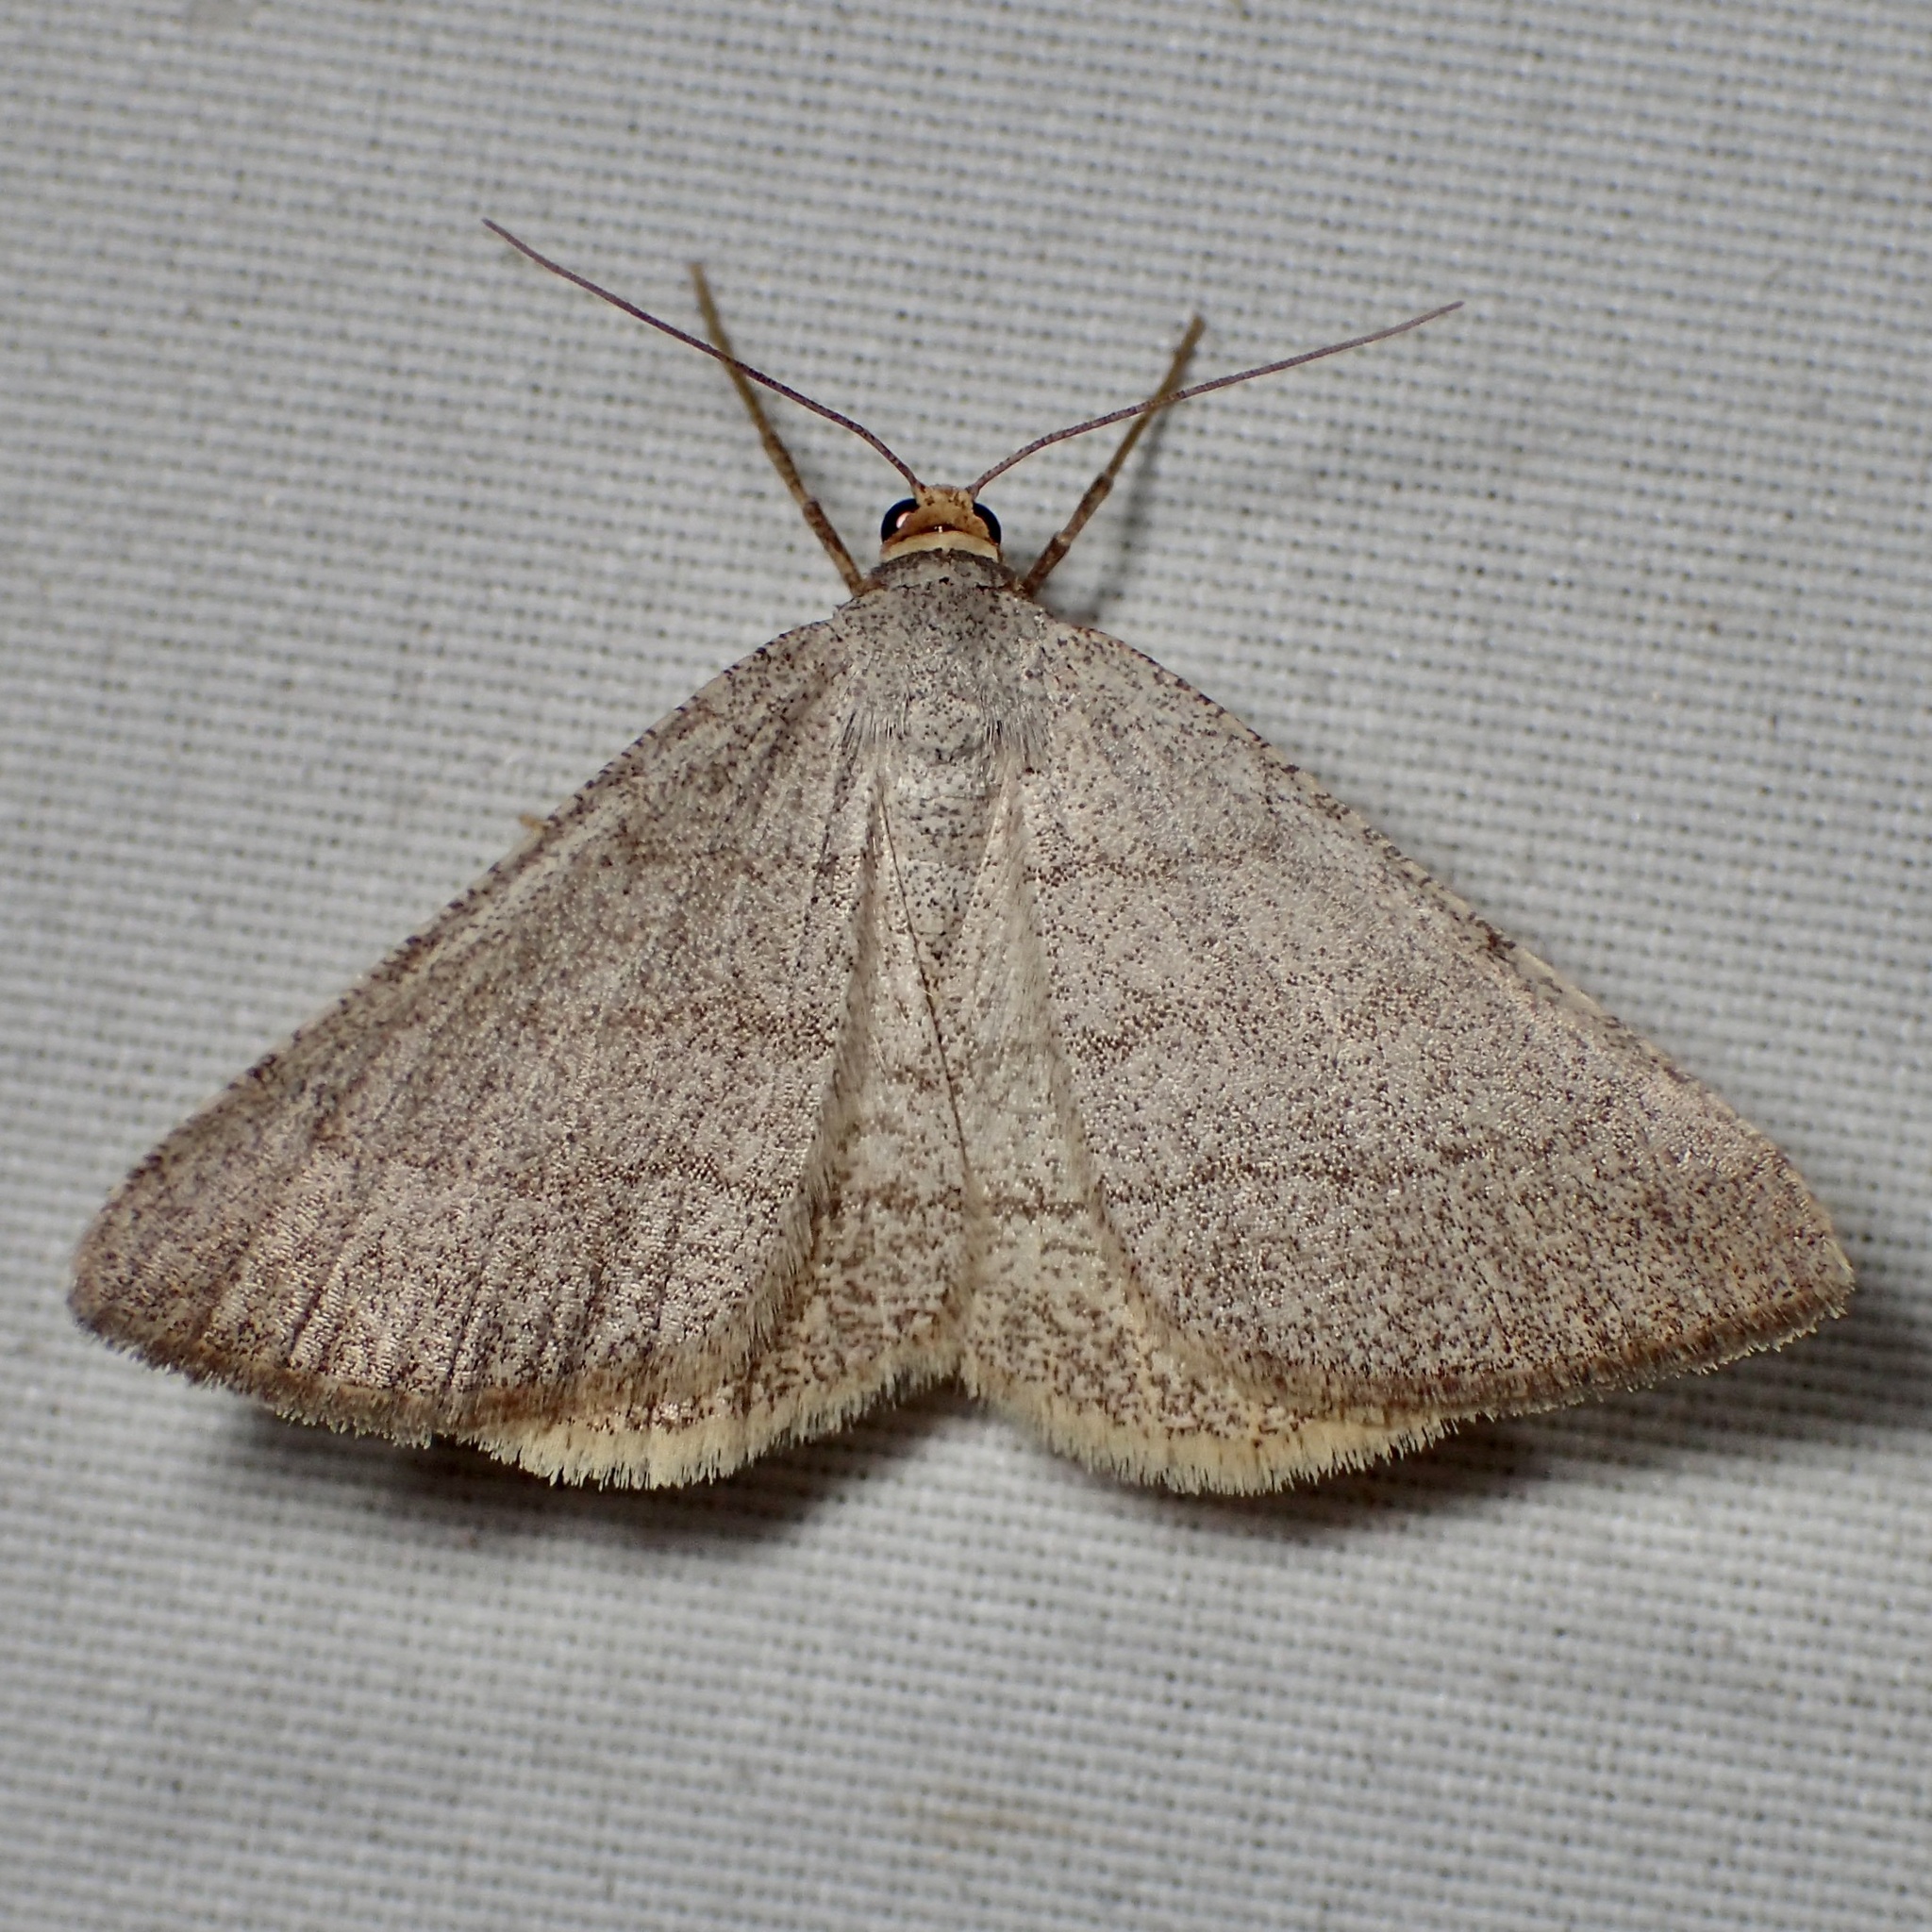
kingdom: Animalia
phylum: Arthropoda
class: Insecta
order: Lepidoptera
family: Geometridae
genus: Macaria
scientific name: Macaria tenebrosata
